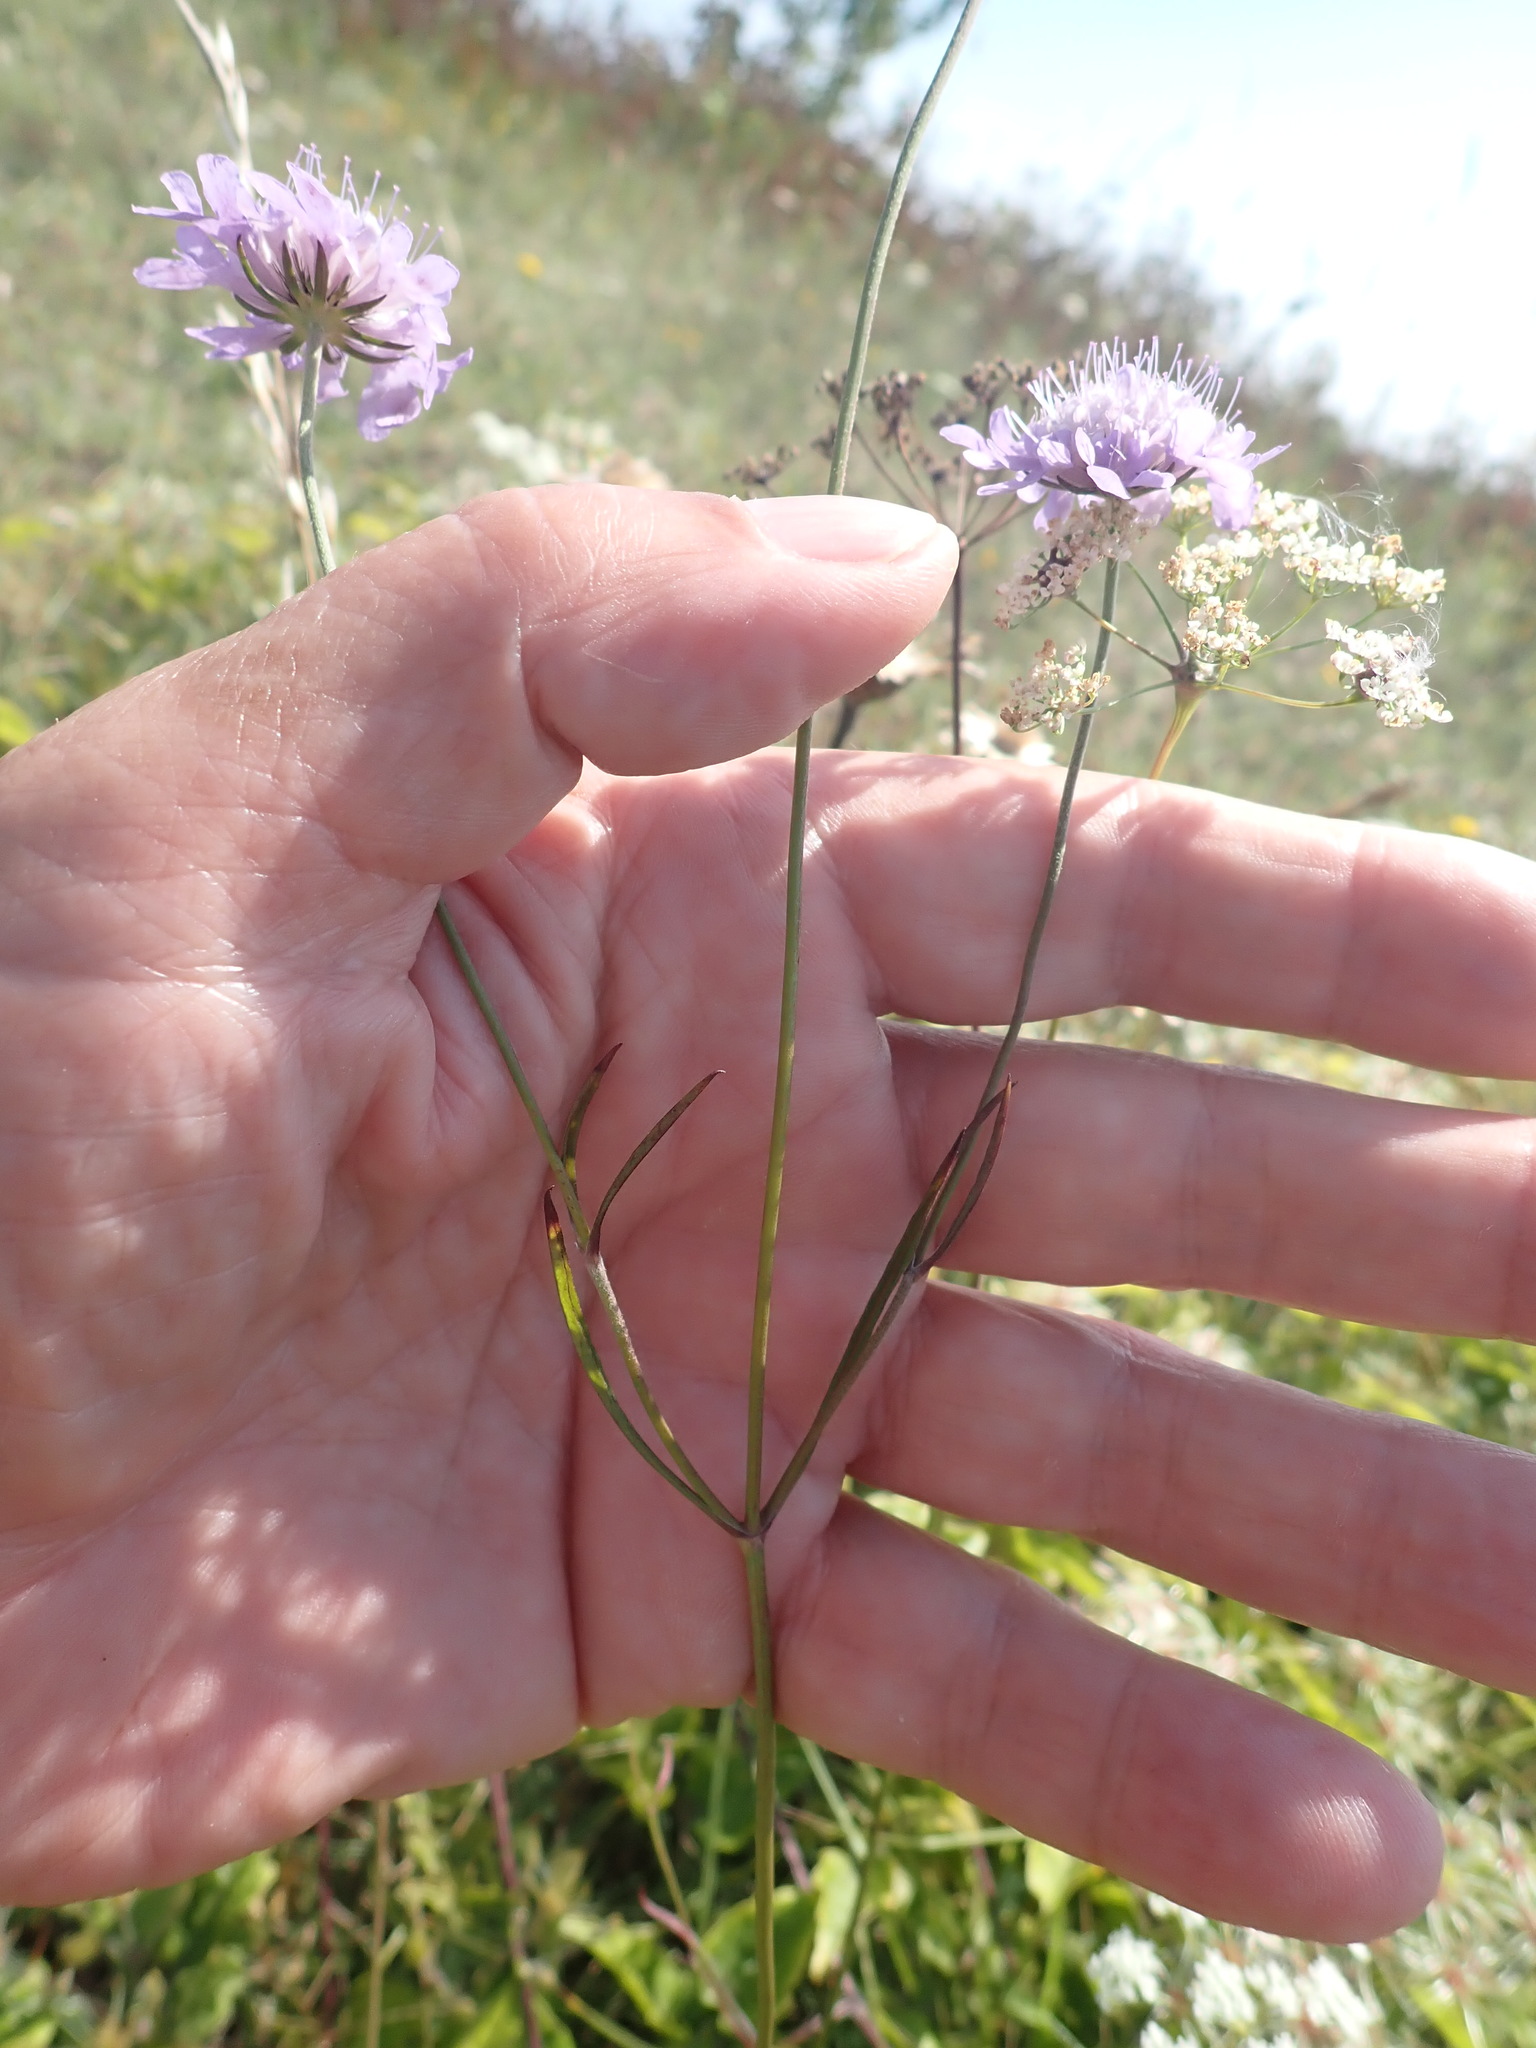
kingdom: Plantae
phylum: Tracheophyta
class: Magnoliopsida
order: Dipsacales
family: Caprifoliaceae
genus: Scabiosa
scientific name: Scabiosa columbaria
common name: Small scabious
